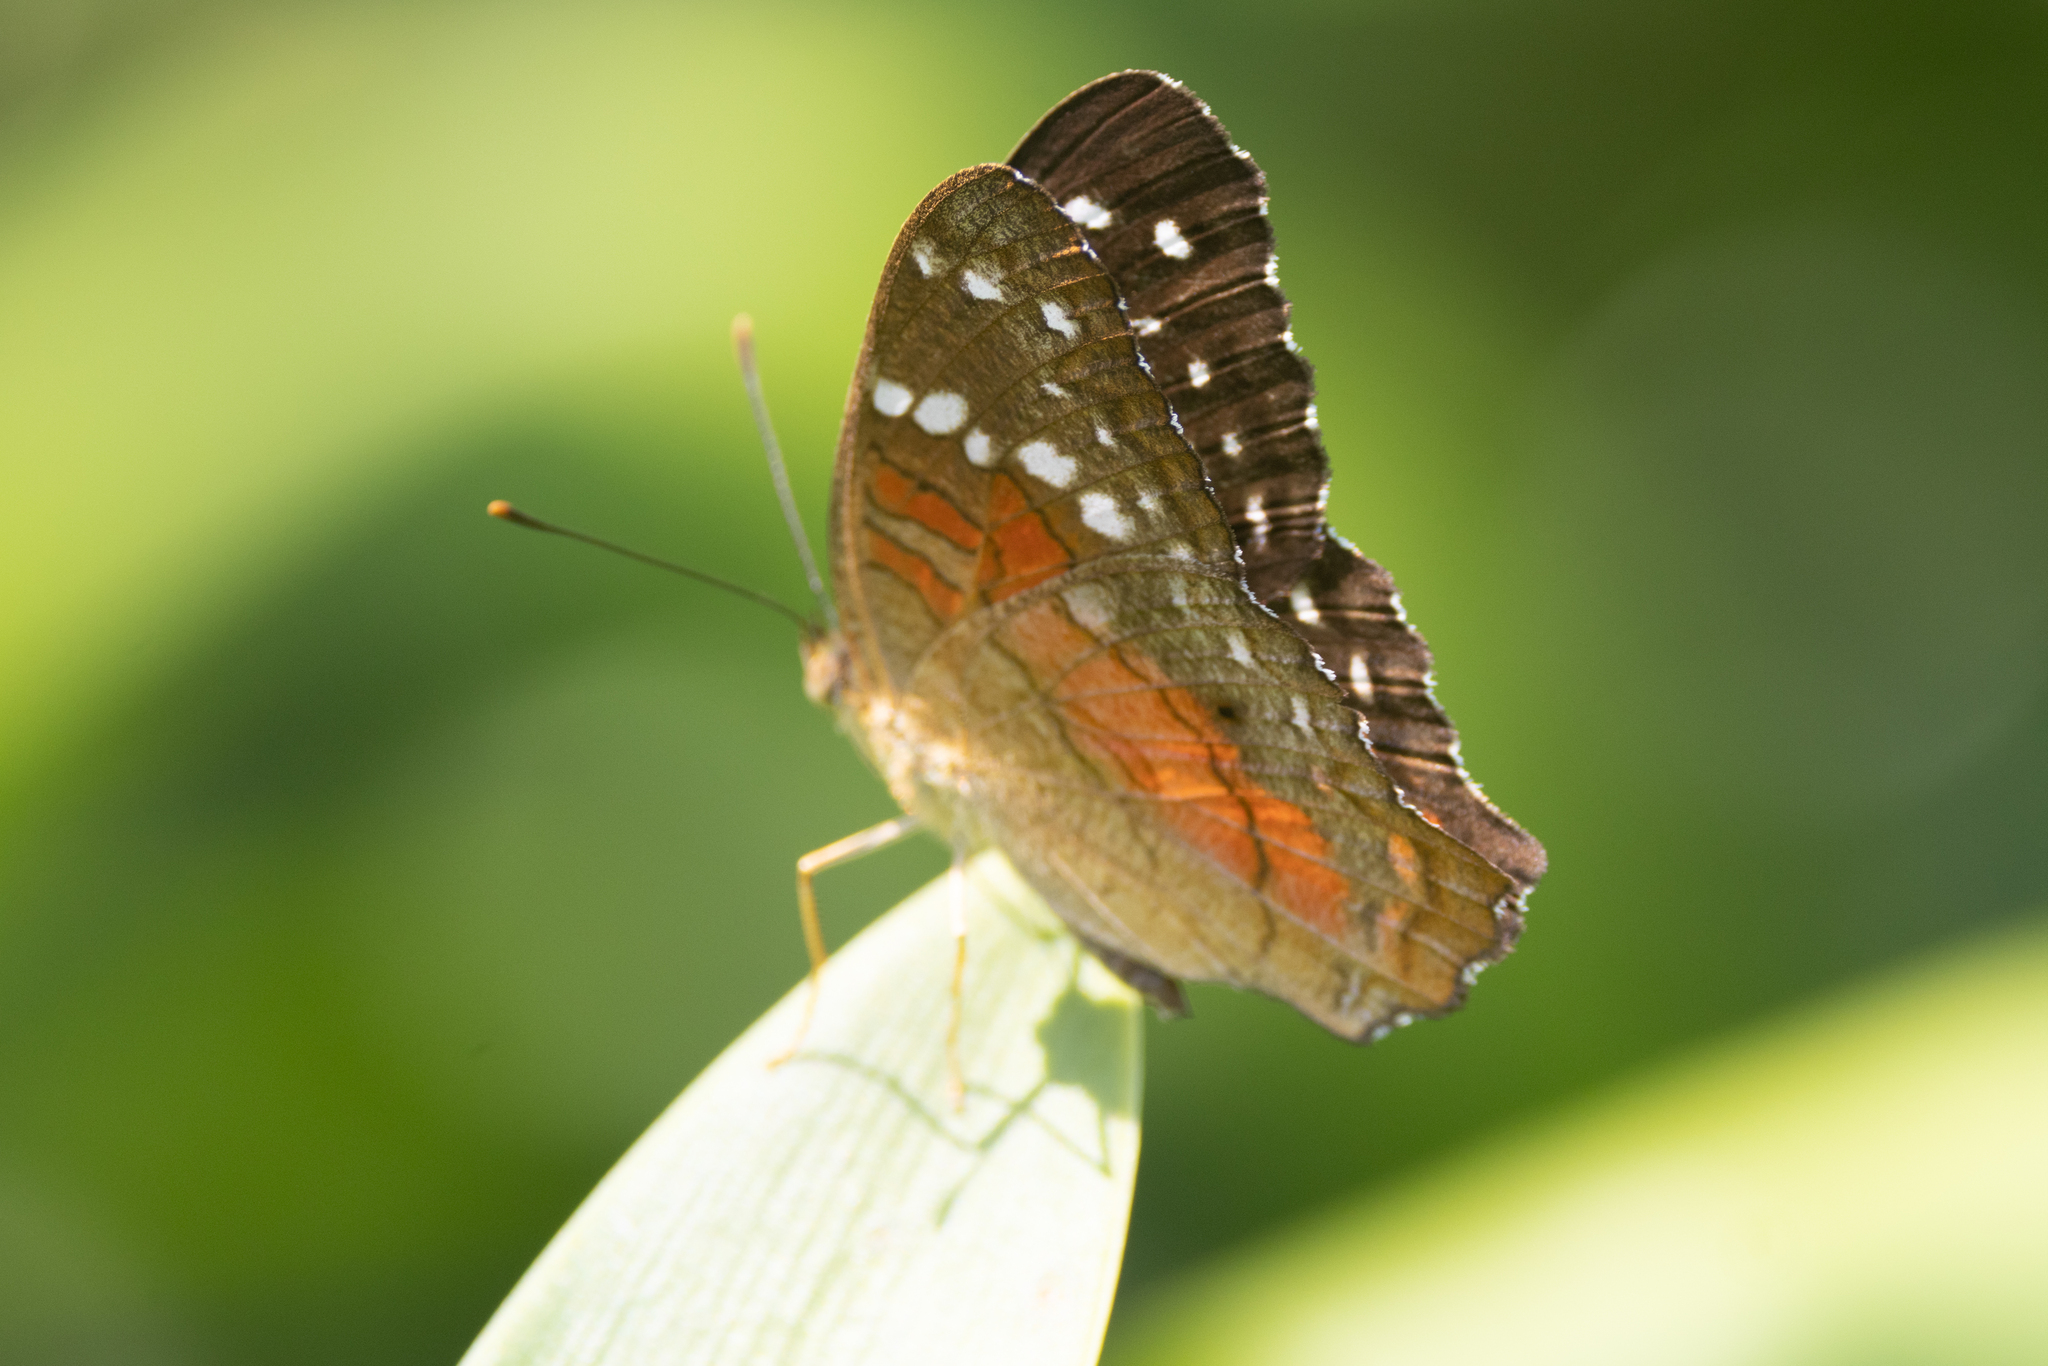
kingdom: Animalia
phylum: Arthropoda
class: Insecta
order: Lepidoptera
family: Nymphalidae
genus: Anartia
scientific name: Anartia amathea
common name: Red peacock
